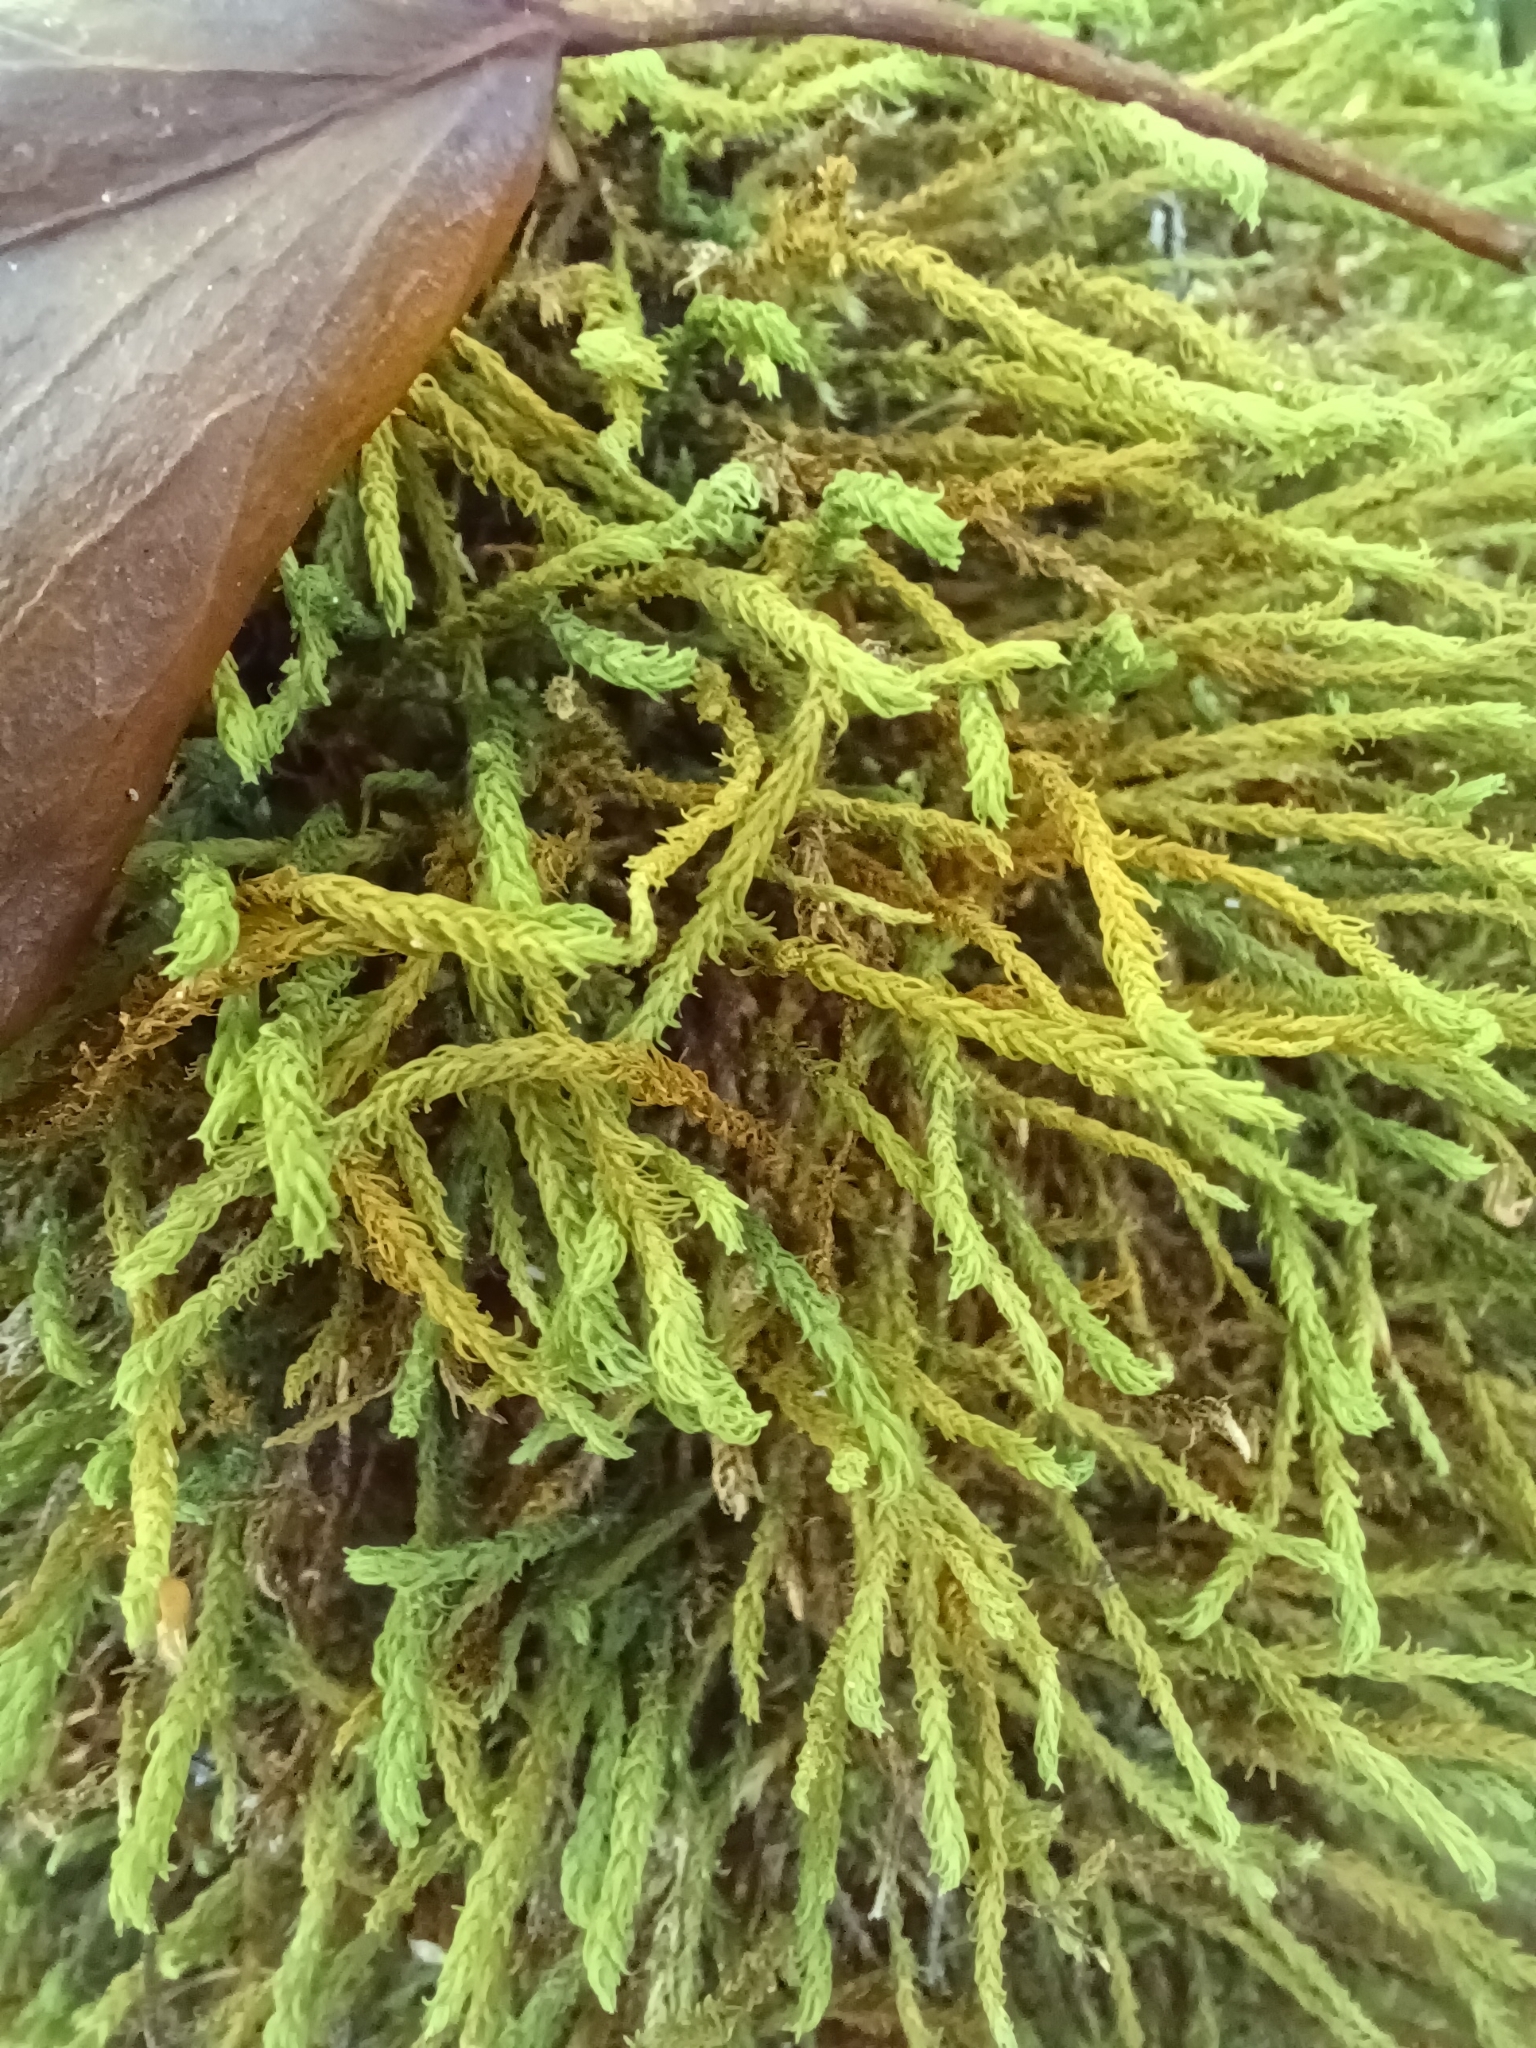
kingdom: Plantae
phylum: Bryophyta
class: Bryopsida
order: Hypnales
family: Anomodontaceae
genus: Anomodon
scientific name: Anomodon viticulosus
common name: Tall anomodon
